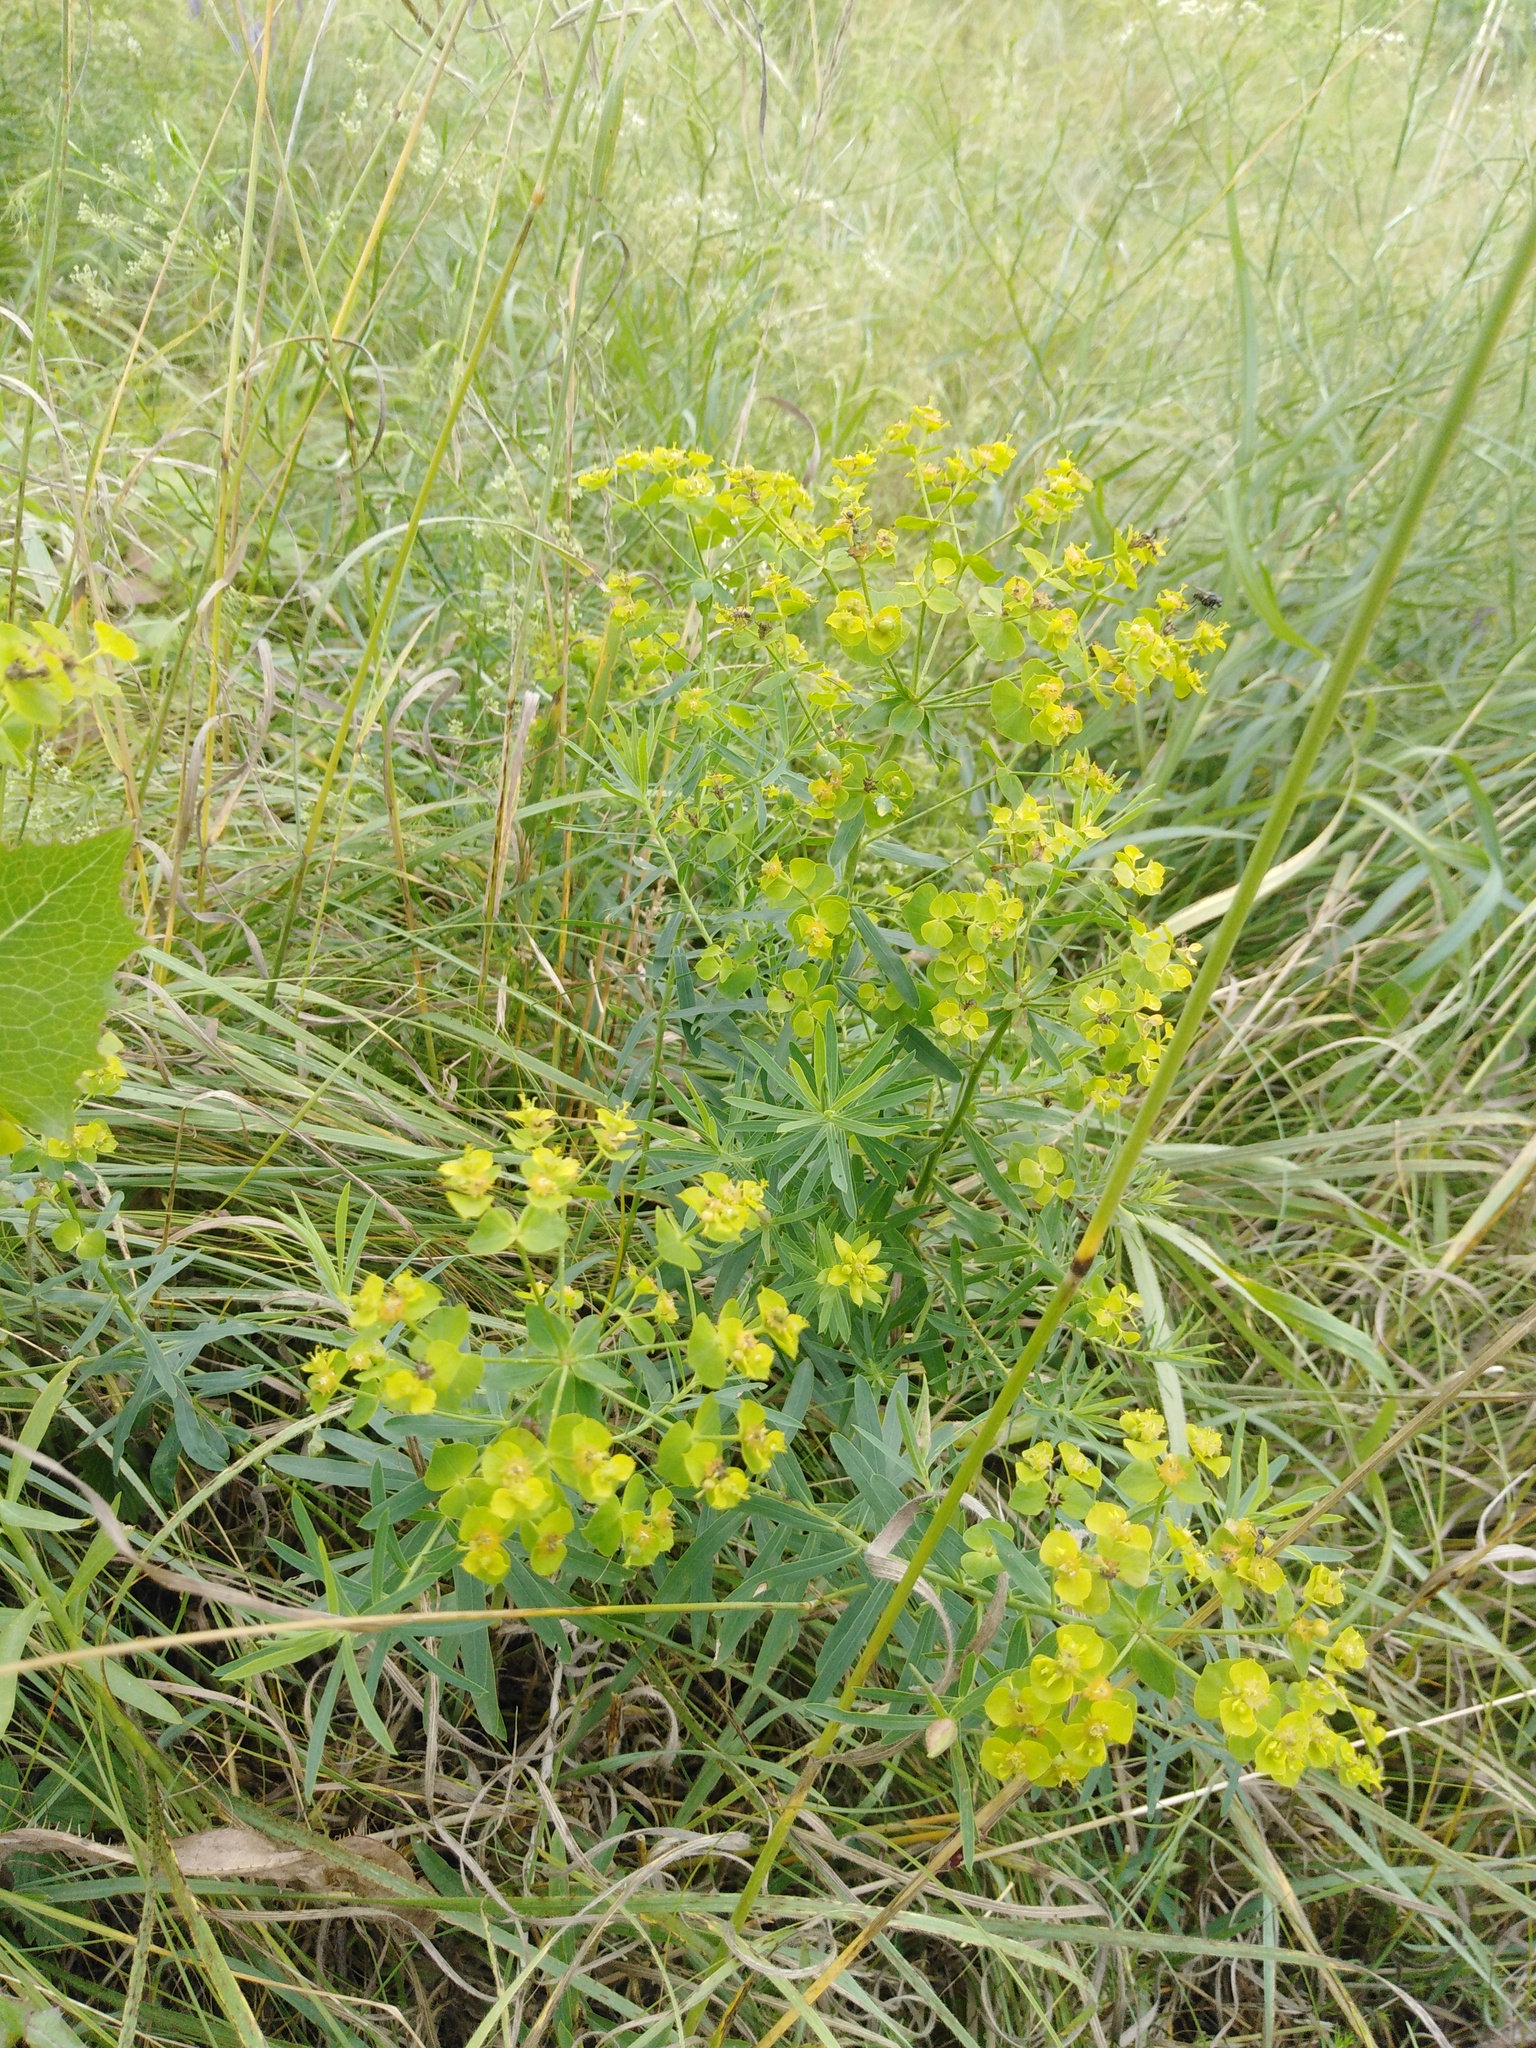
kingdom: Plantae
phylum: Tracheophyta
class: Magnoliopsida
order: Malpighiales
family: Euphorbiaceae
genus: Euphorbia
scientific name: Euphorbia virgata
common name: Leafy spurge
